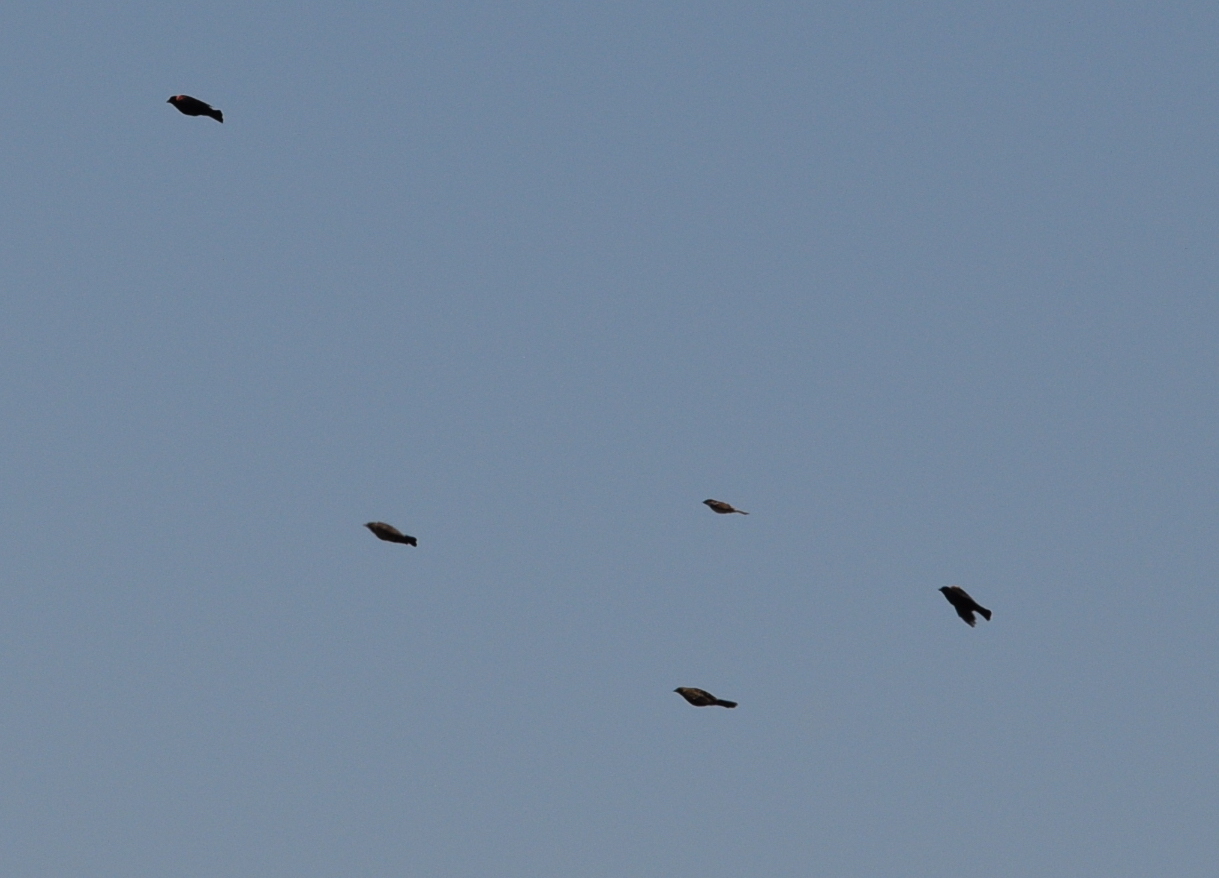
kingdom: Animalia
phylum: Chordata
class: Aves
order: Passeriformes
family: Icteridae
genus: Agelaius
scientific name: Agelaius phoeniceus
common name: Red-winged blackbird
